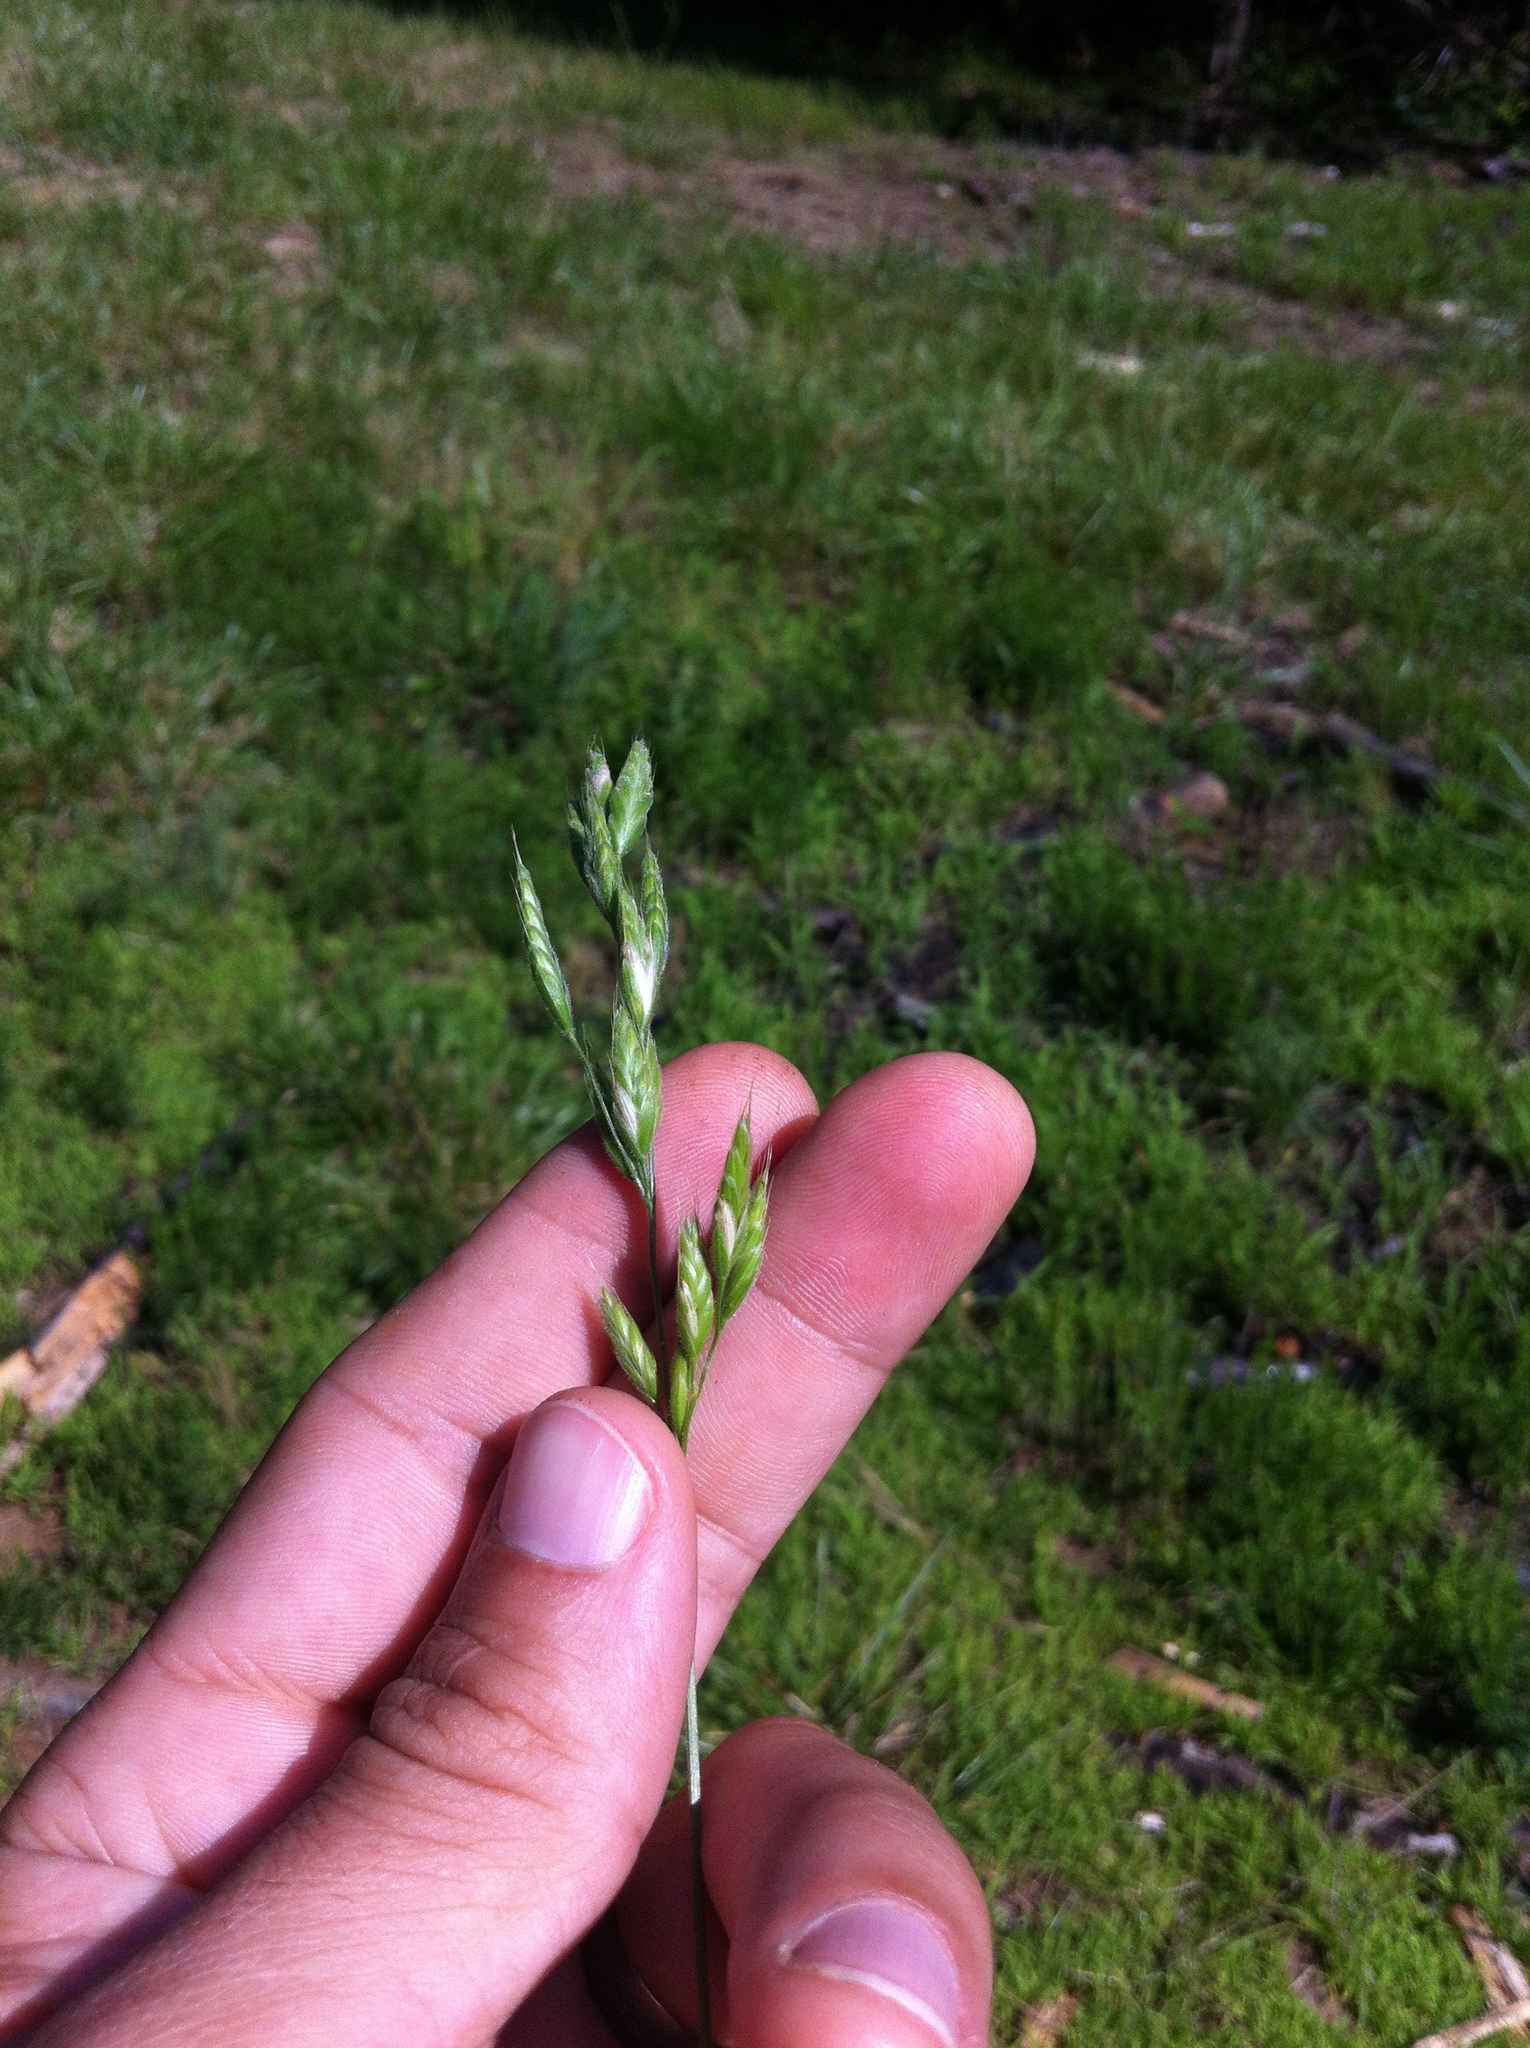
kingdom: Plantae
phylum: Tracheophyta
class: Liliopsida
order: Poales
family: Poaceae
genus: Bromus
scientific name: Bromus hordeaceus
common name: Soft brome
